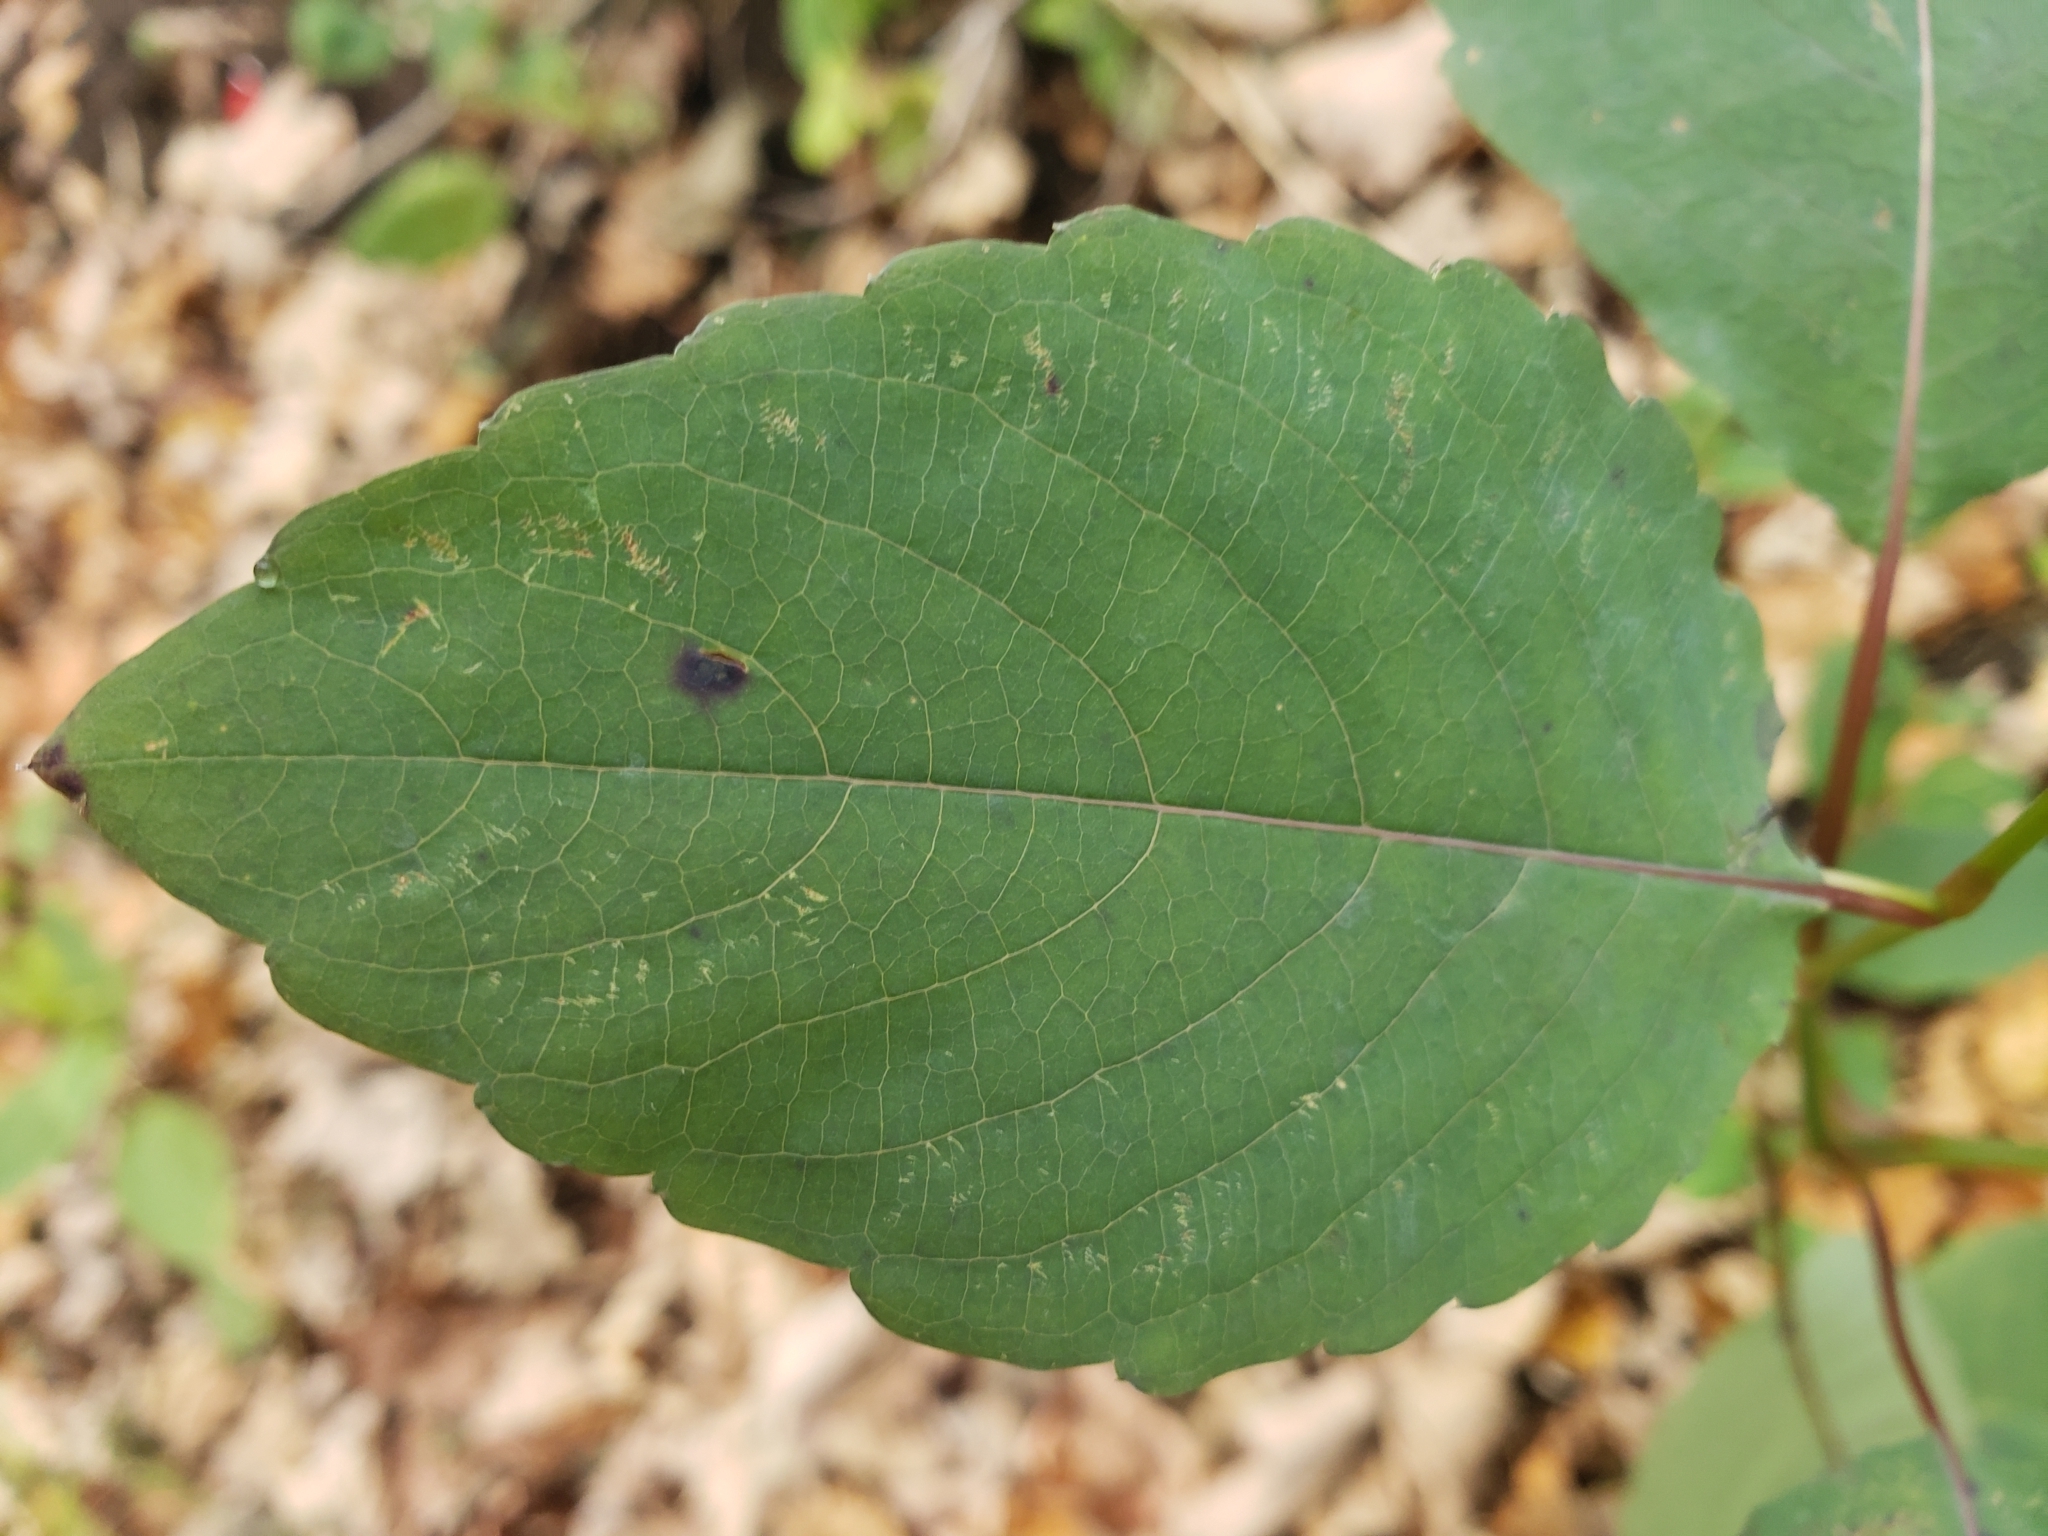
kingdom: Plantae
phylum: Tracheophyta
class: Magnoliopsida
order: Ericales
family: Balsaminaceae
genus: Impatiens
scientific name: Impatiens pallida
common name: Pale snapweed
